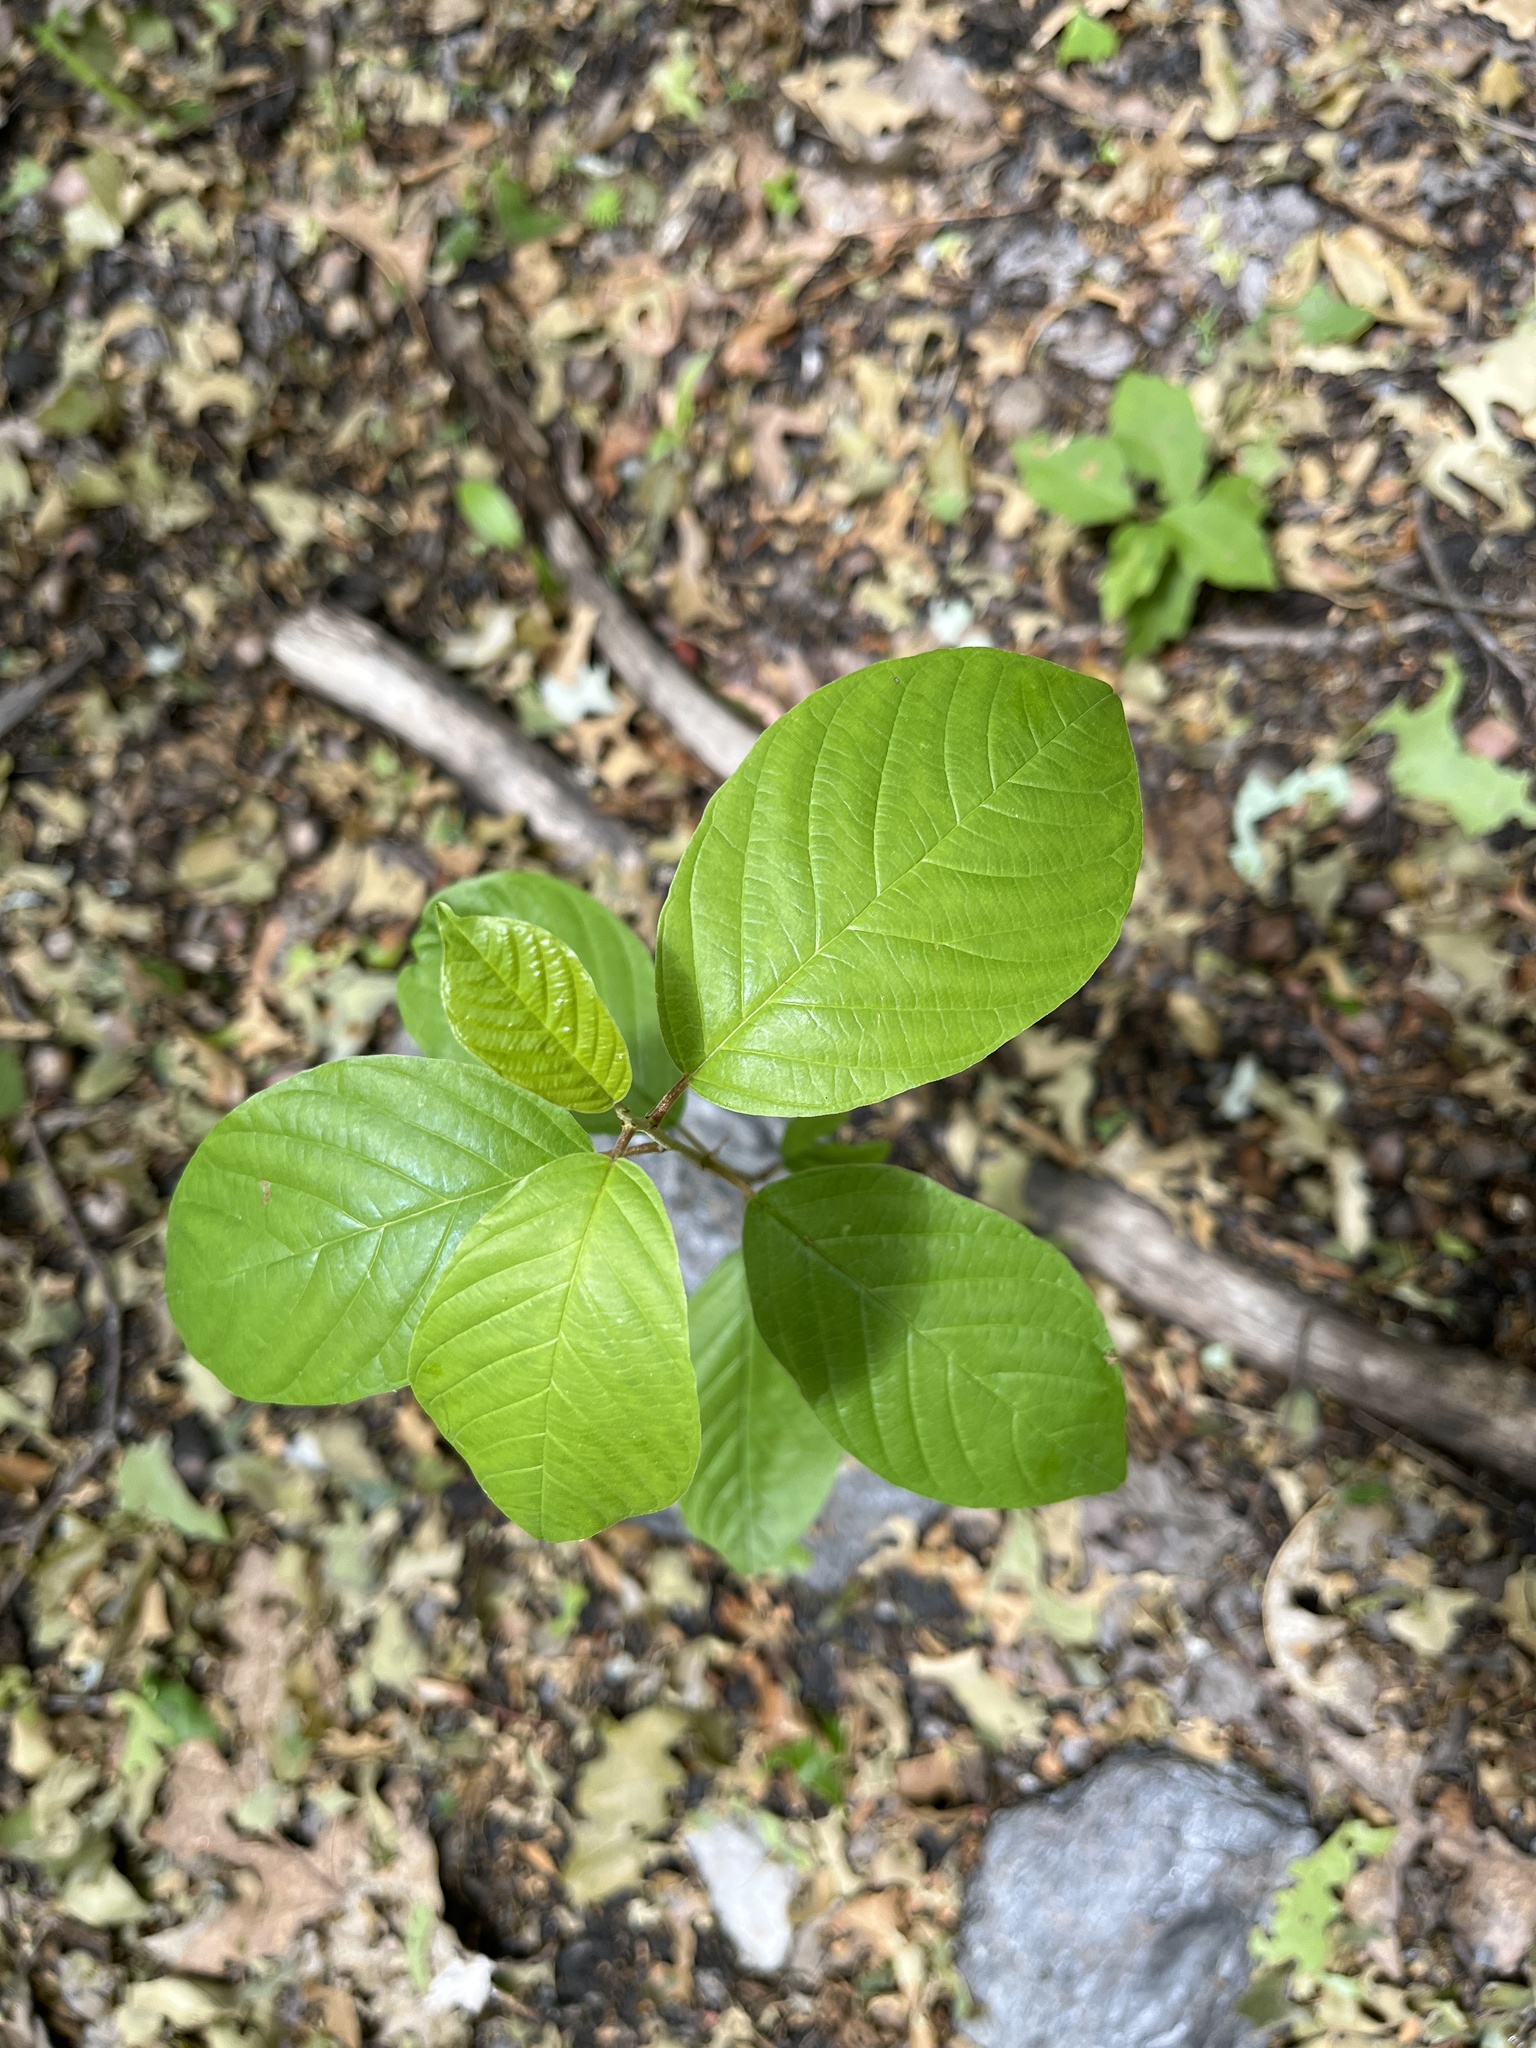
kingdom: Plantae
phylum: Tracheophyta
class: Magnoliopsida
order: Rosales
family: Rhamnaceae
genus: Frangula
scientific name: Frangula alnus
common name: Alder buckthorn
